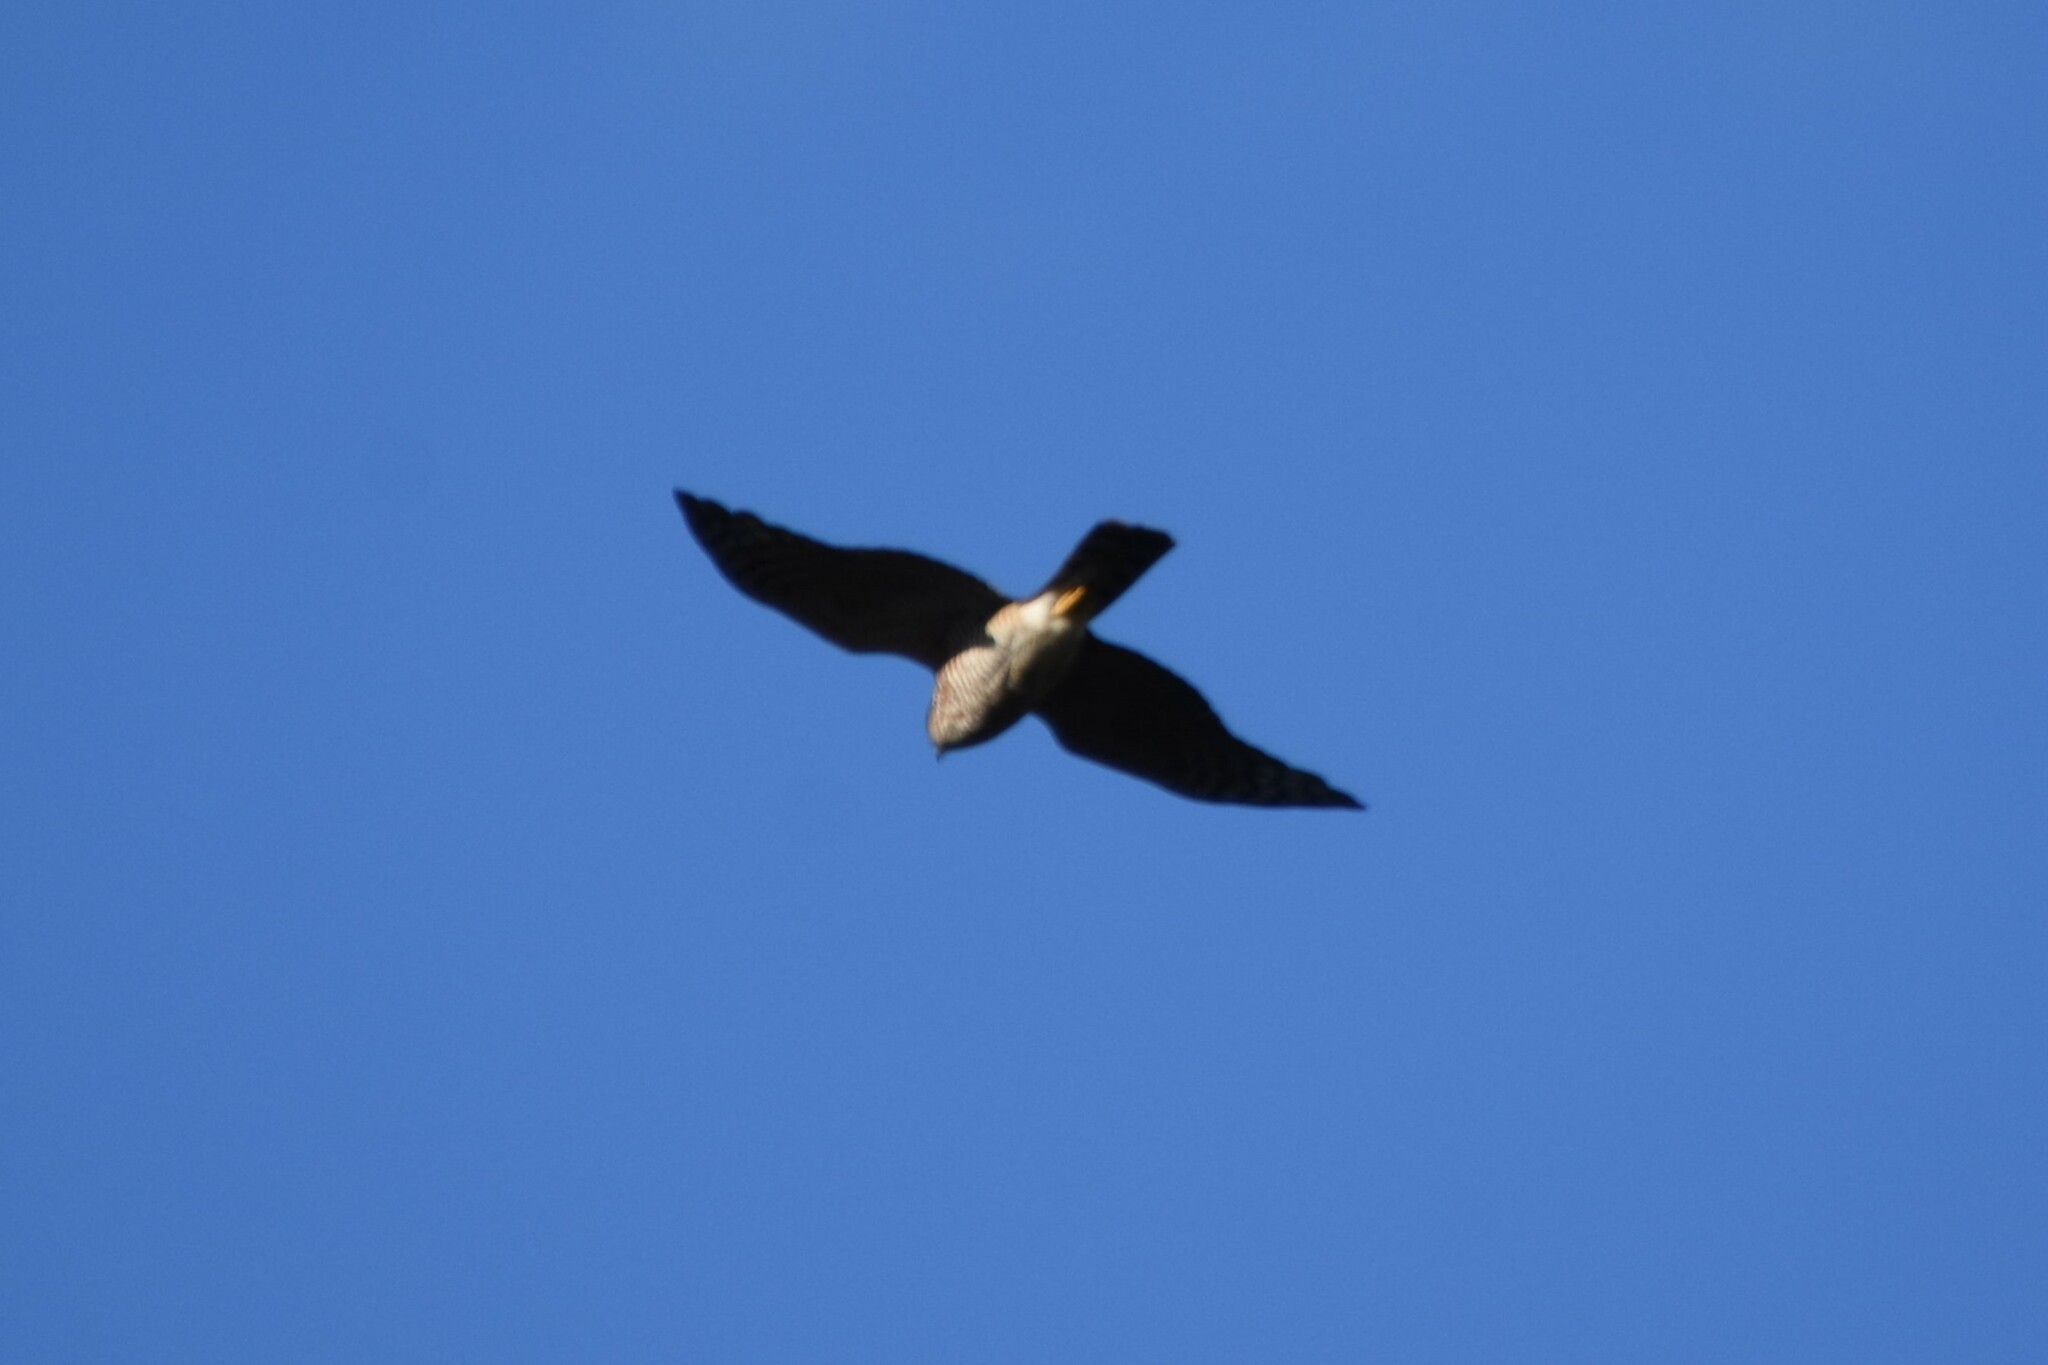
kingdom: Animalia
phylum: Chordata
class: Aves
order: Accipitriformes
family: Accipitridae
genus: Accipiter
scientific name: Accipiter nisus
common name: Eurasian sparrowhawk
